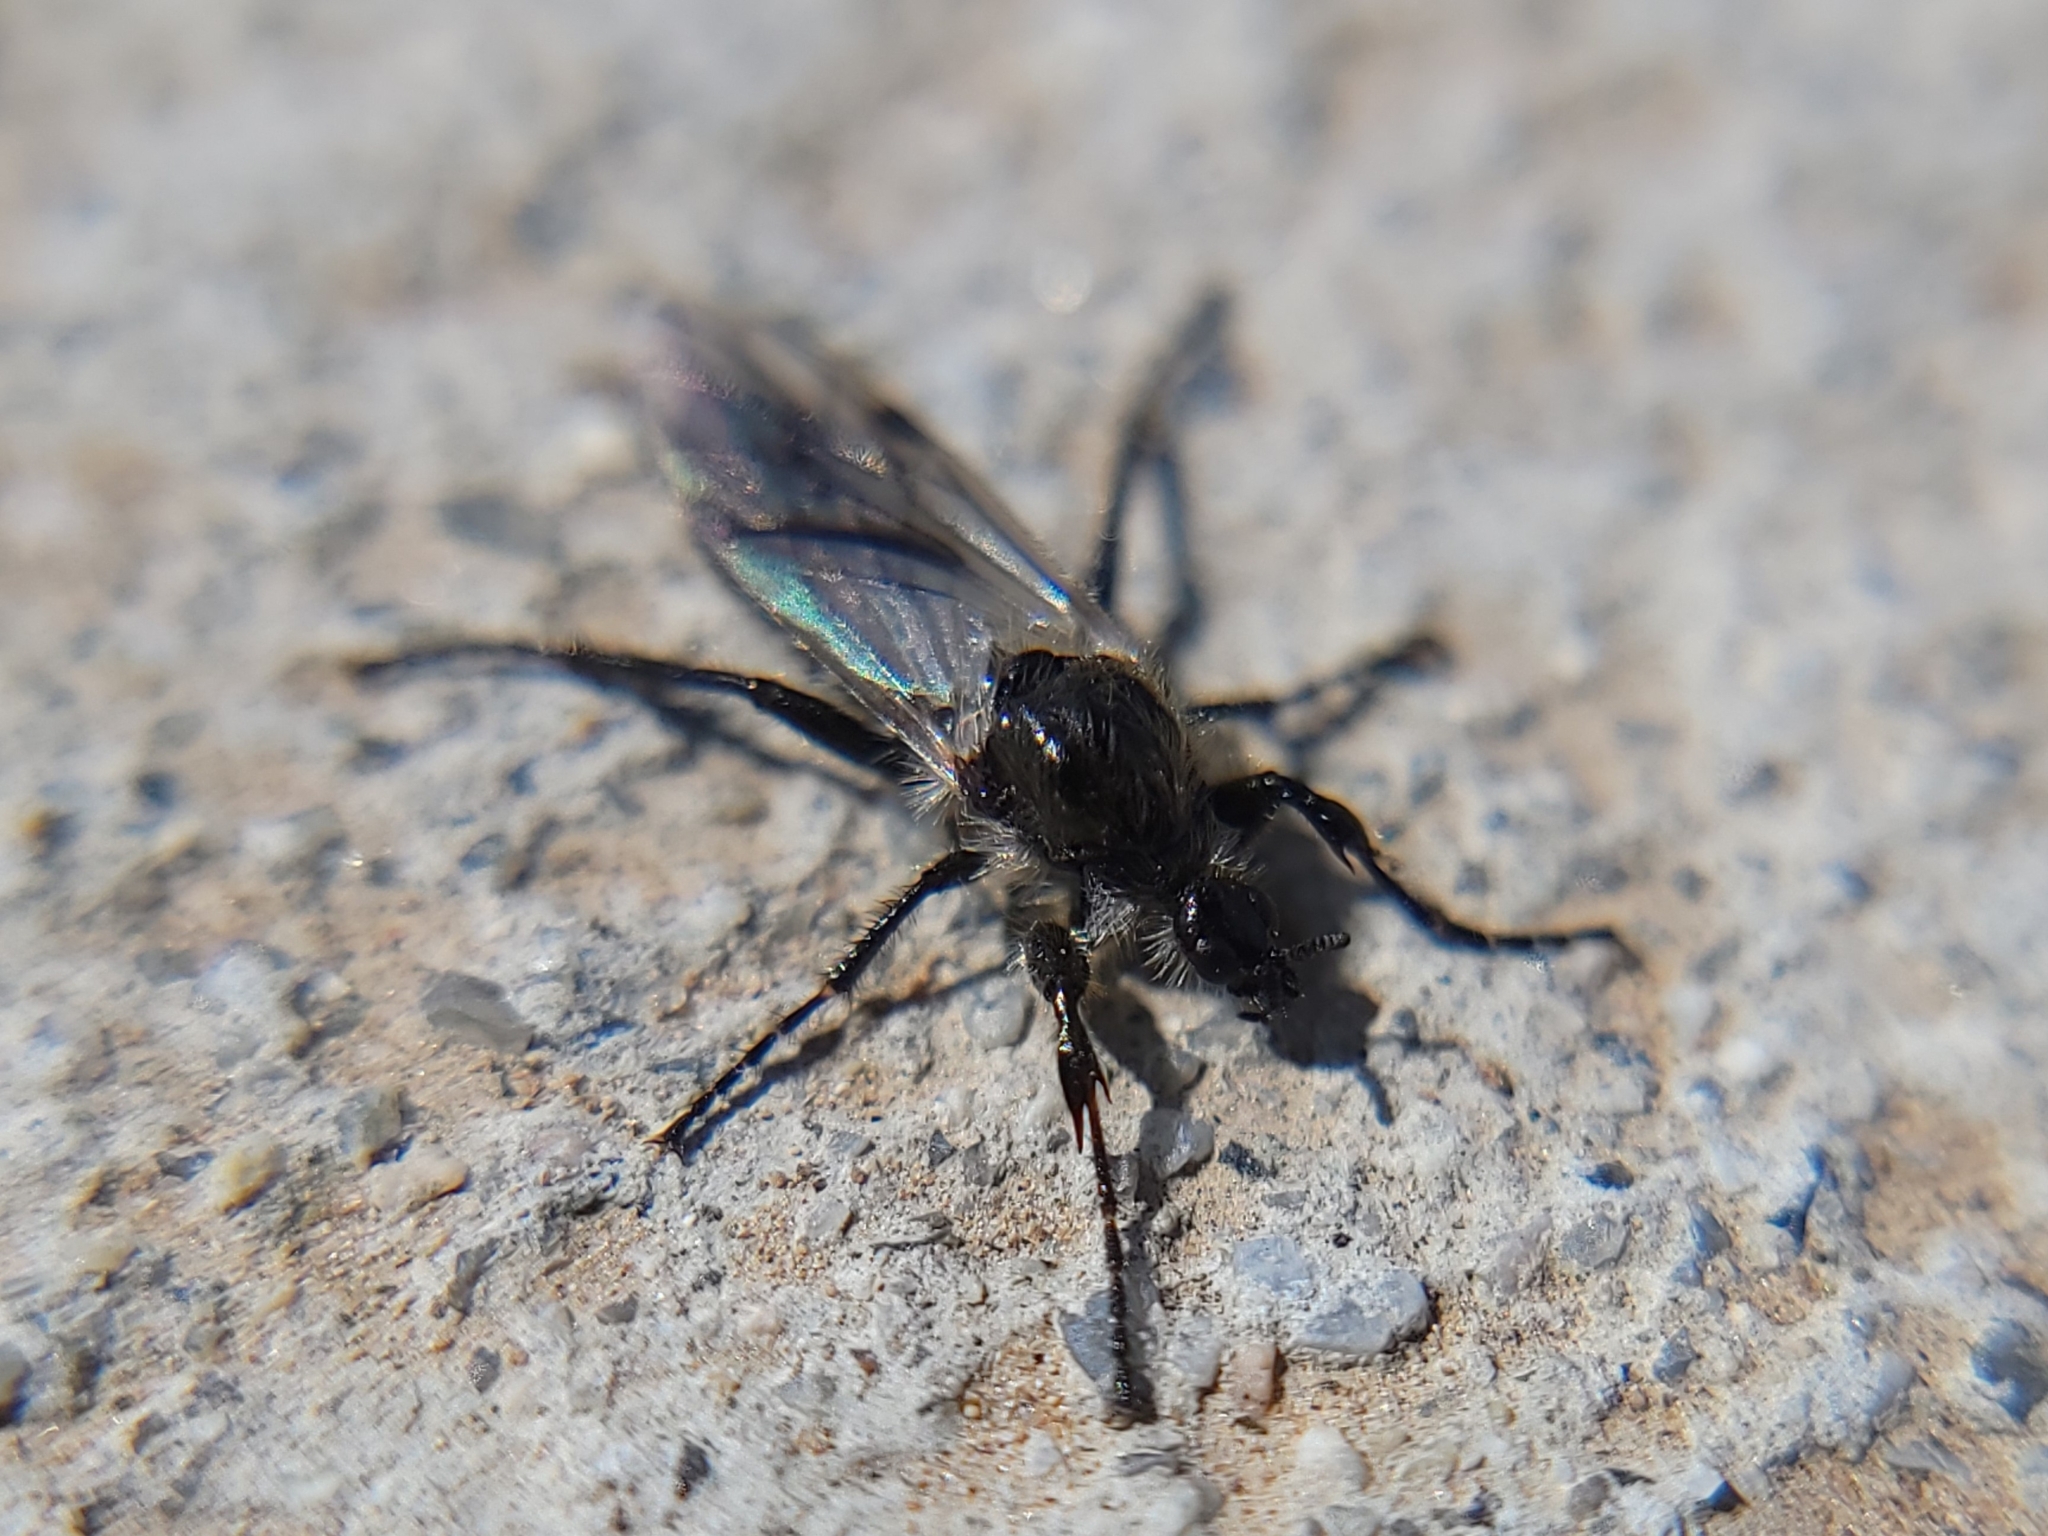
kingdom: Animalia
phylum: Arthropoda
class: Insecta
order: Diptera
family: Bibionidae
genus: Bibio
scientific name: Bibio albipennis
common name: White-winged march fly
